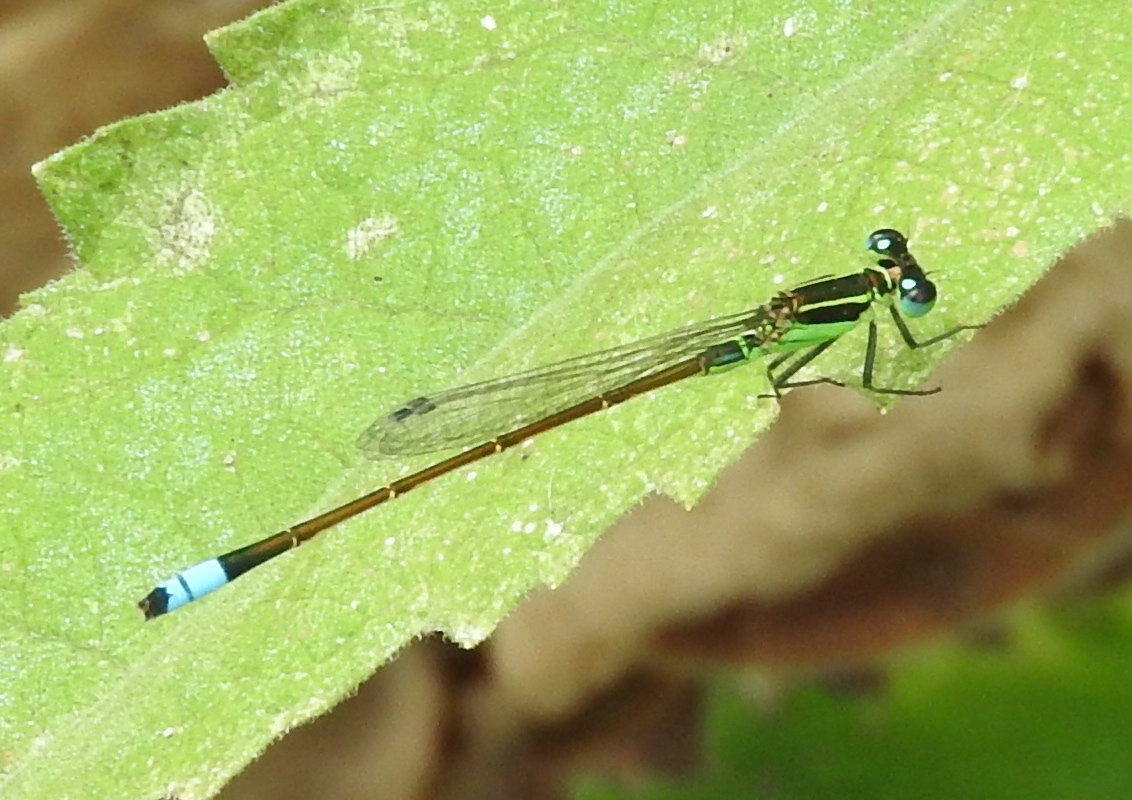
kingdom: Animalia
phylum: Arthropoda
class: Insecta
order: Odonata
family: Coenagrionidae
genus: Ischnura
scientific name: Ischnura ramburii
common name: Rambur's forktail
